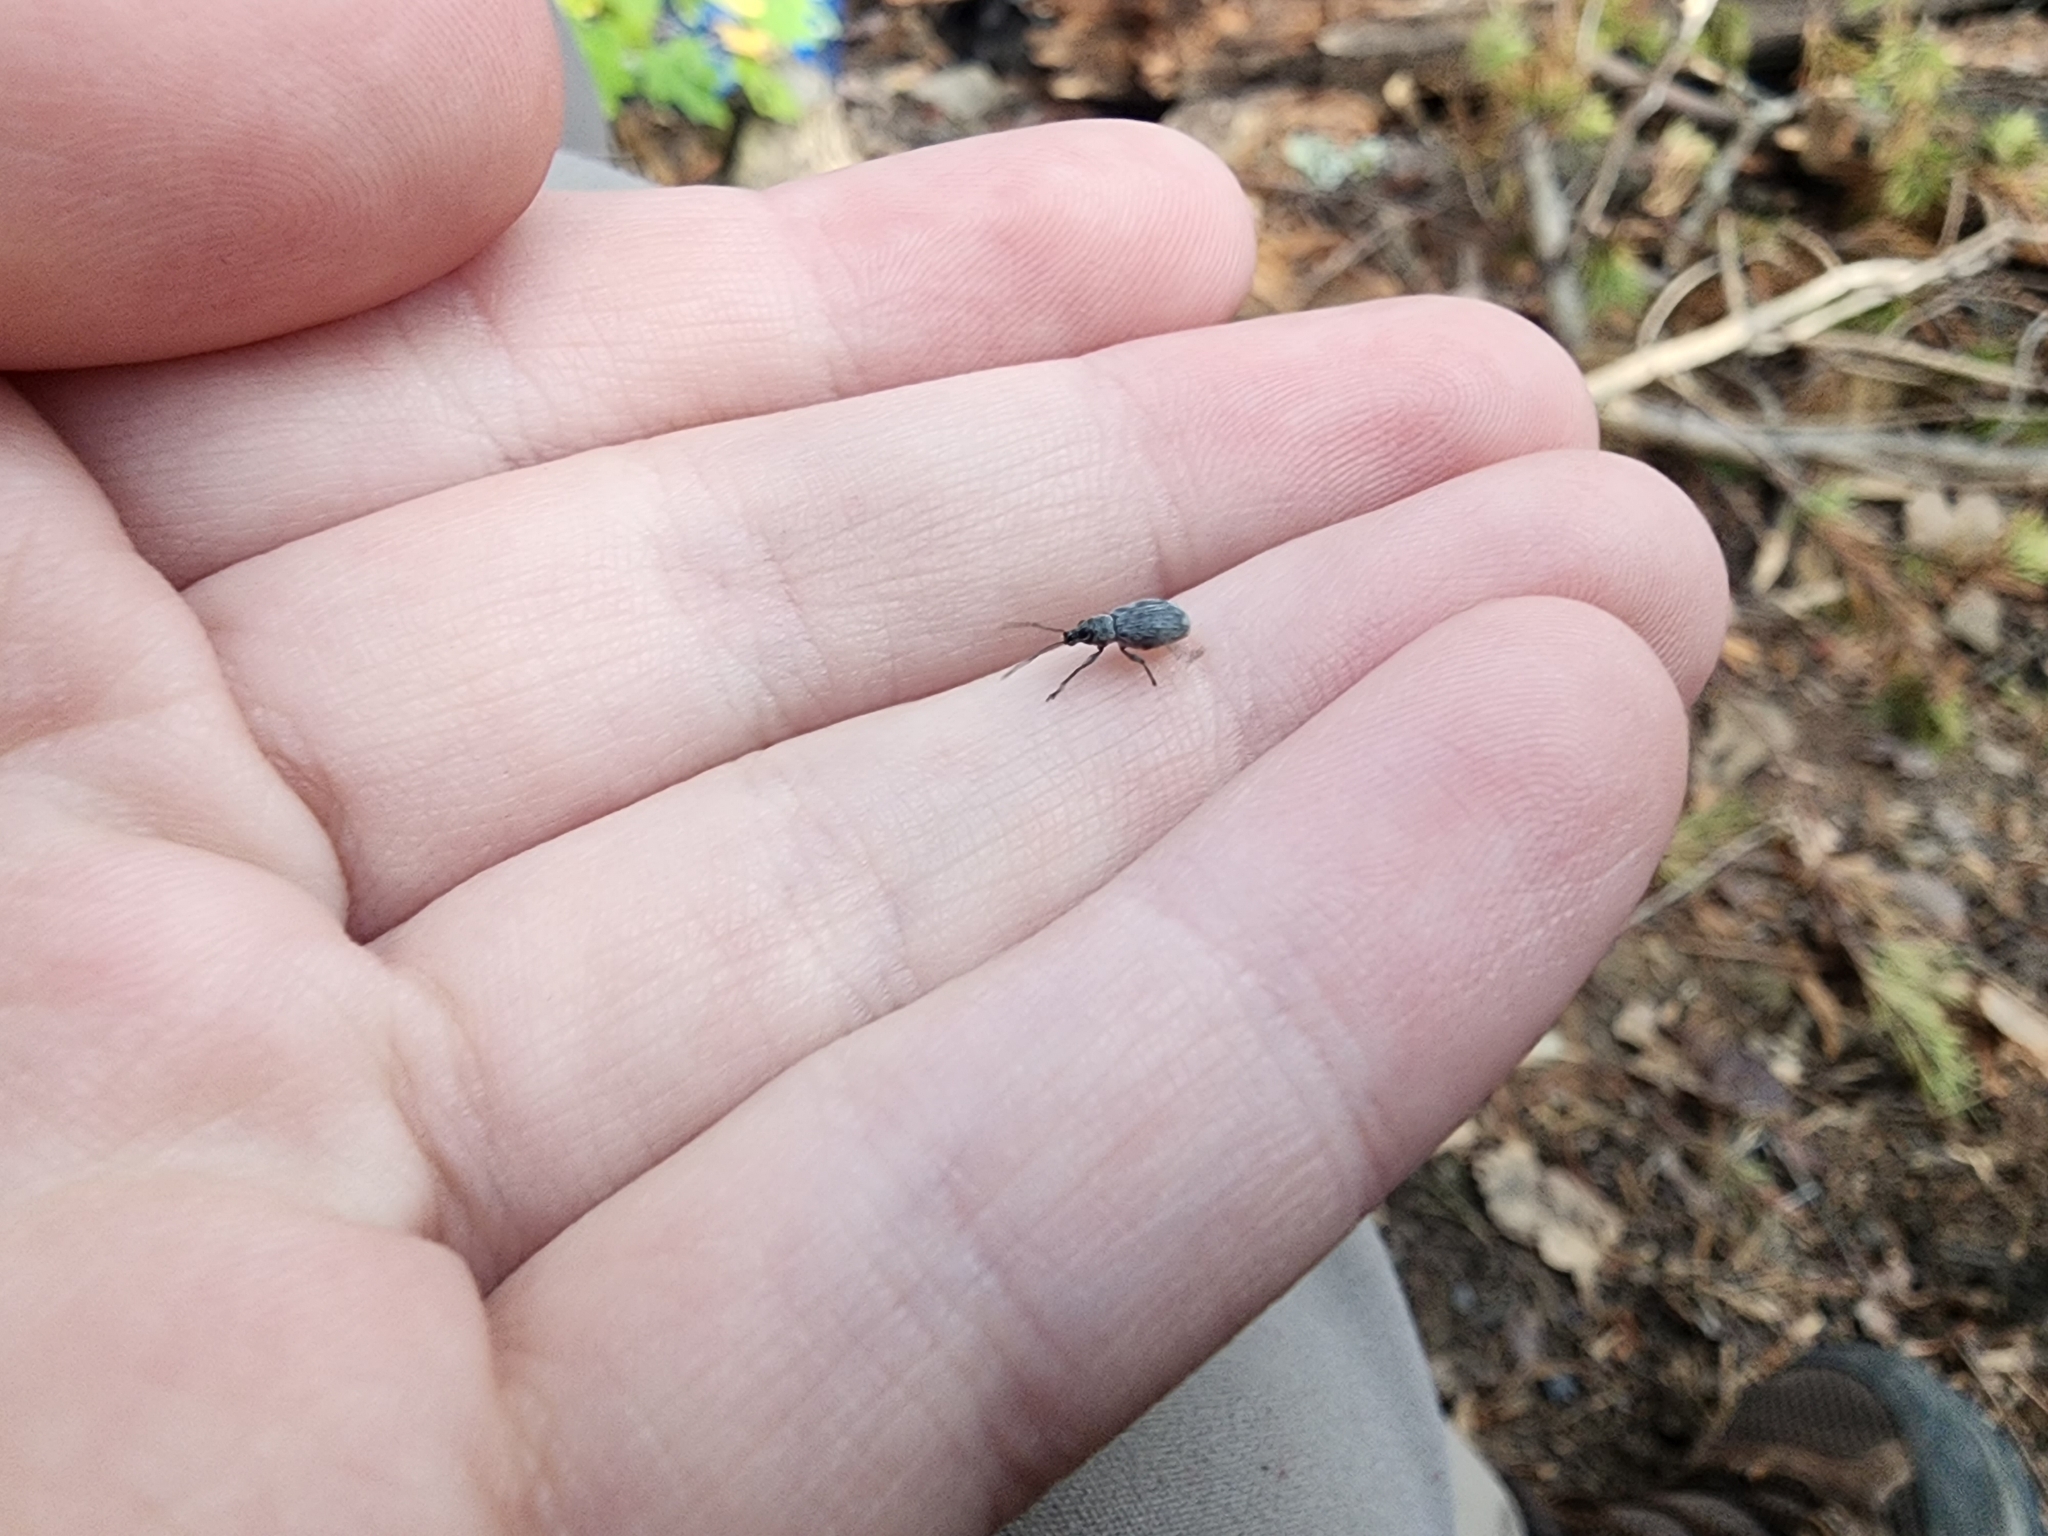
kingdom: Animalia
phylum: Arthropoda
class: Insecta
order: Coleoptera
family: Curculionidae
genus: Cyrtepistomus
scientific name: Cyrtepistomus castaneus
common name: Weevil
